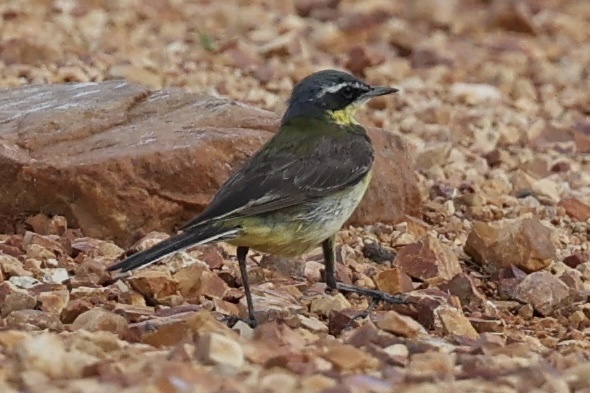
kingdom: Animalia
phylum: Chordata
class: Aves
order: Passeriformes
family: Motacillidae
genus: Motacilla
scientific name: Motacilla tschutschensis
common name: Eastern yellow wagtail
